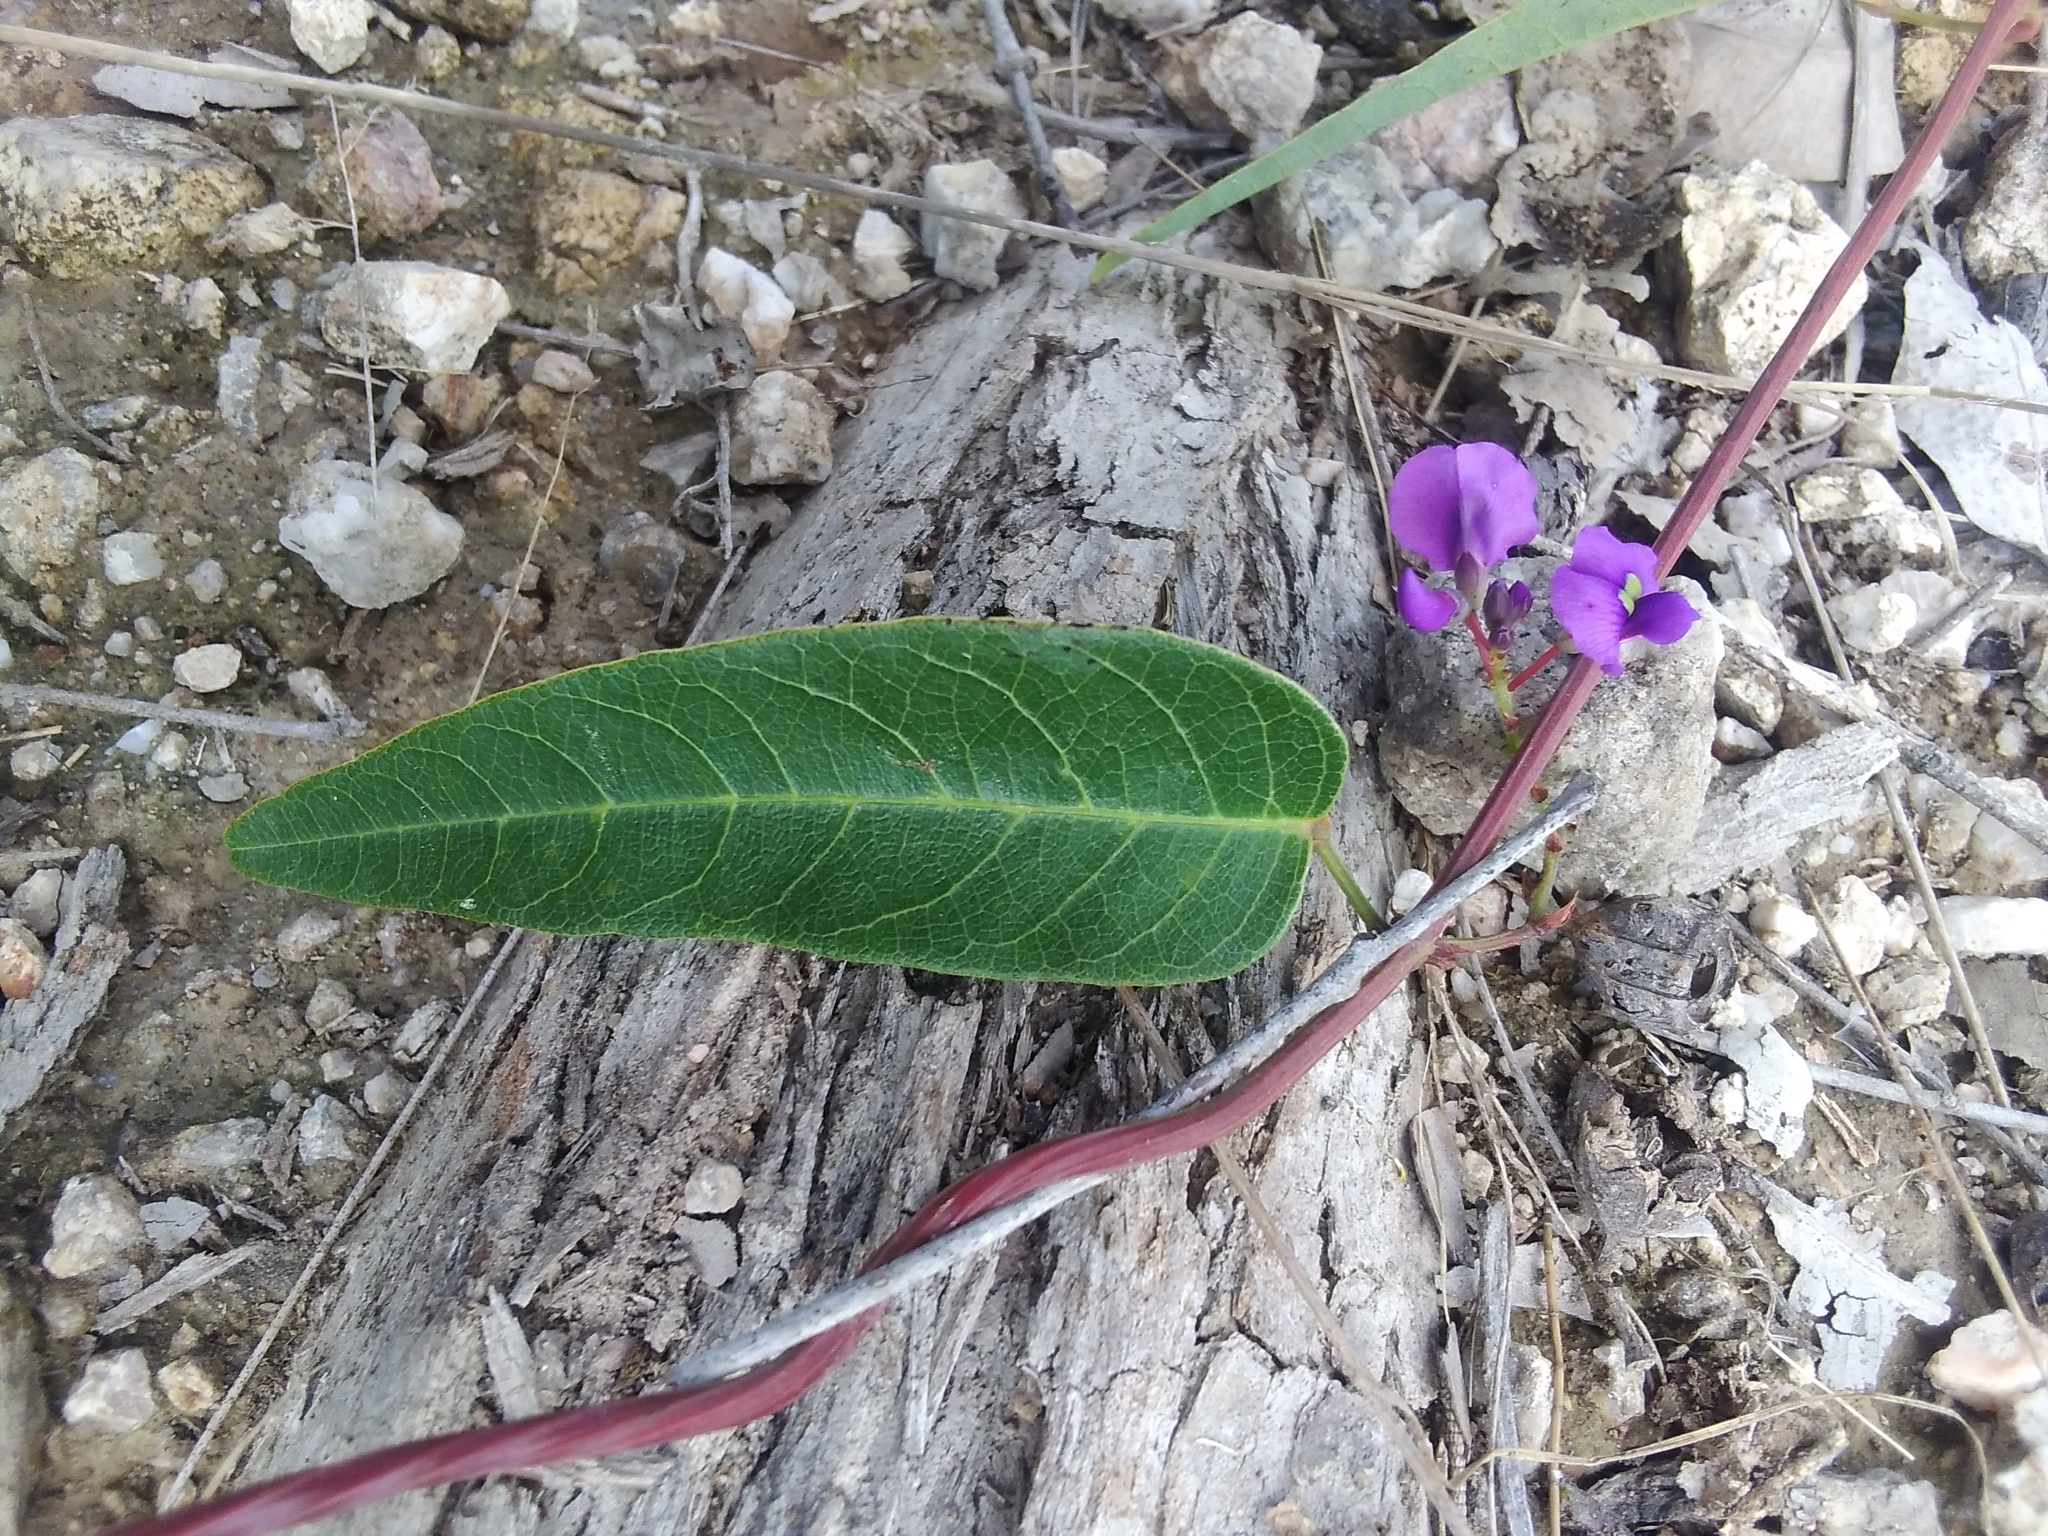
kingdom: Plantae
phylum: Tracheophyta
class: Magnoliopsida
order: Fabales
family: Fabaceae
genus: Hardenbergia
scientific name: Hardenbergia violacea
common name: Coral-pea
